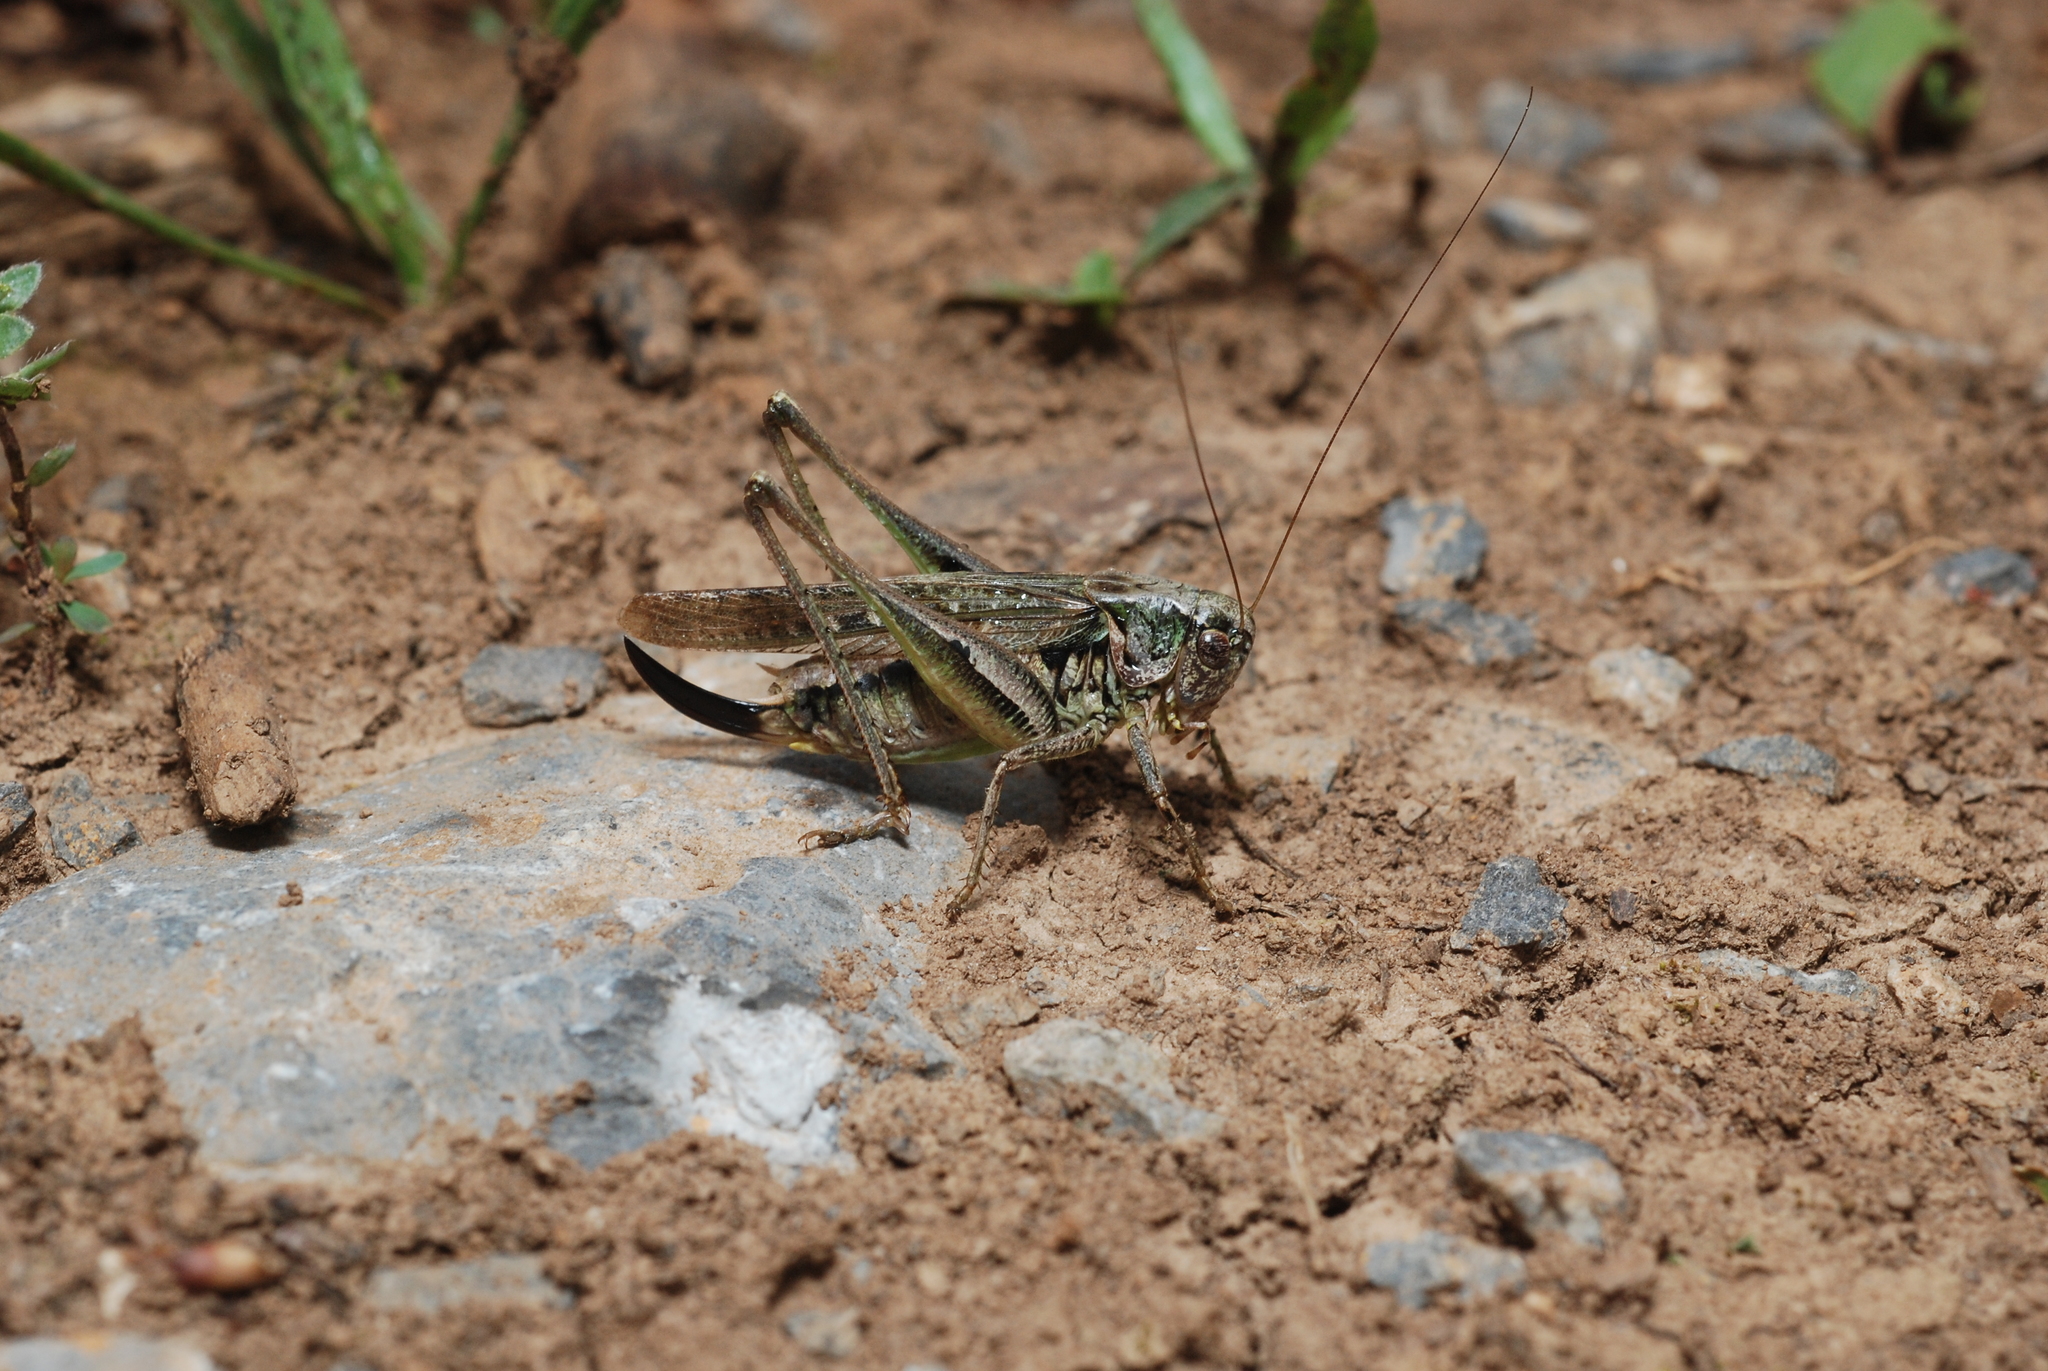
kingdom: Animalia
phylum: Arthropoda
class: Insecta
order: Orthoptera
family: Tettigoniidae
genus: Platycleis
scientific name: Platycleis albopunctata
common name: Grey bush-cricket
